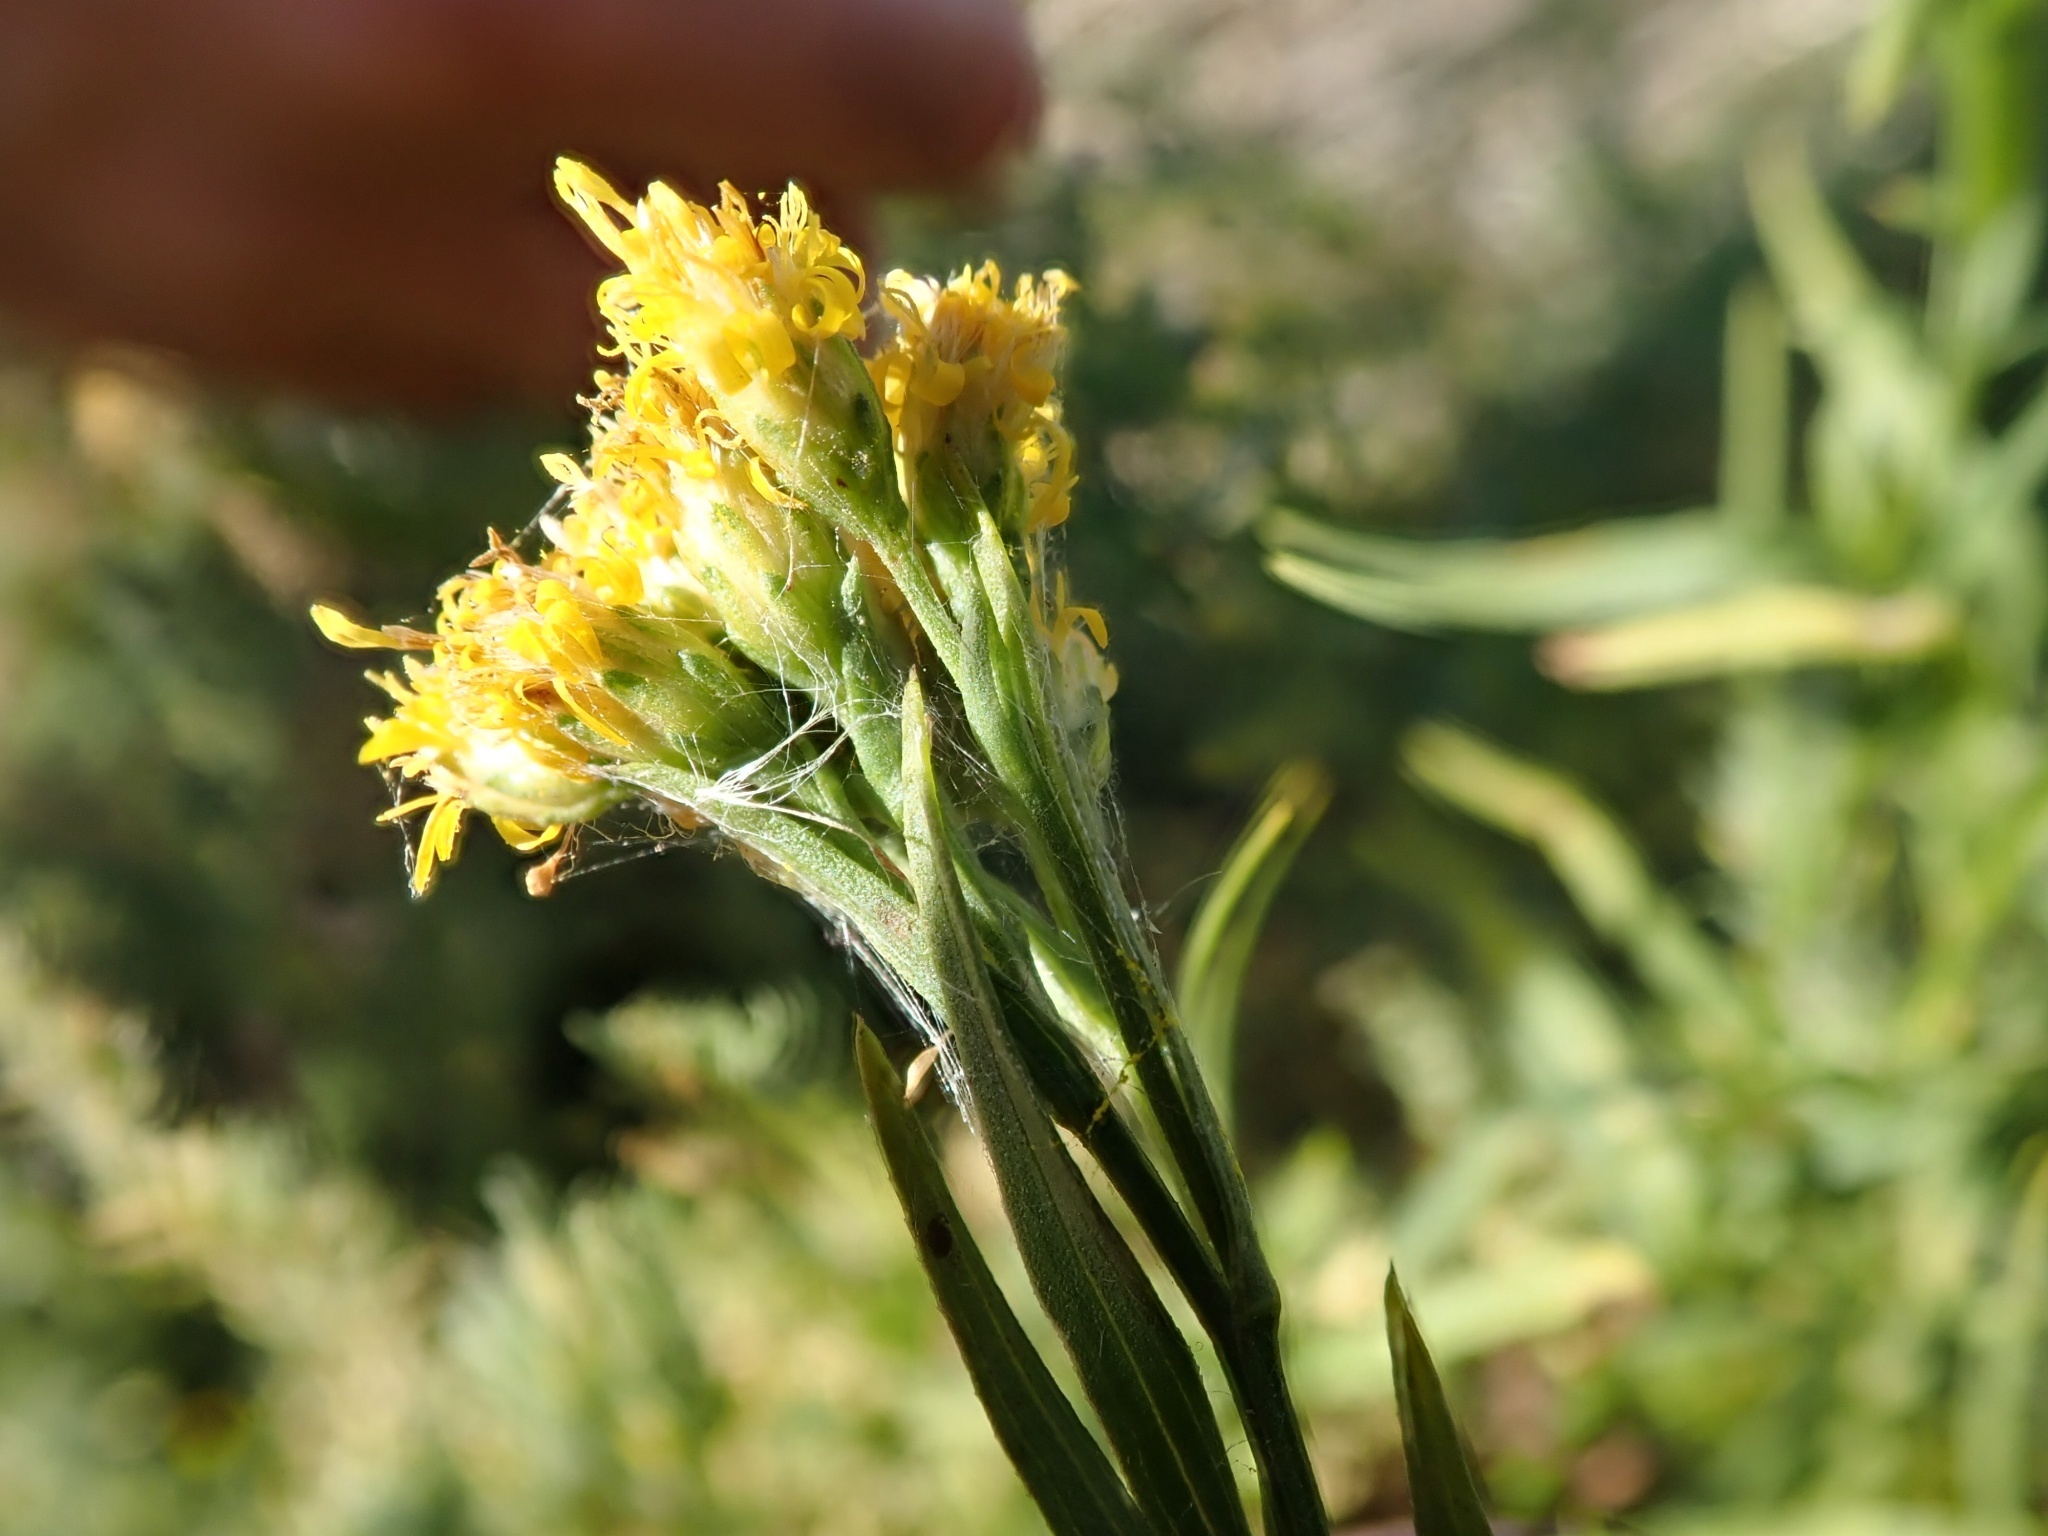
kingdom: Plantae
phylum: Tracheophyta
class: Magnoliopsida
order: Asterales
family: Asteraceae
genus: Euthamia
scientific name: Euthamia occidentalis
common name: Western goldentop
